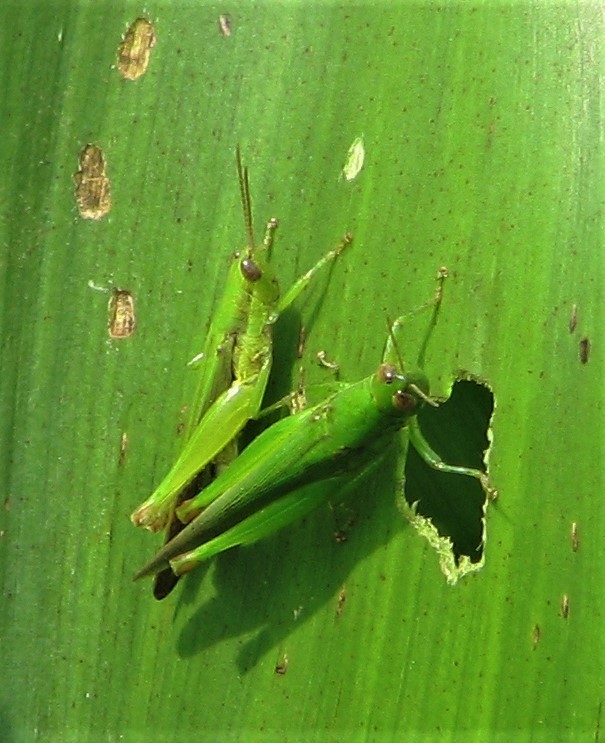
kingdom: Animalia
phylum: Arthropoda
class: Insecta
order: Orthoptera
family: Acrididae
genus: Cornops
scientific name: Cornops aquaticum
